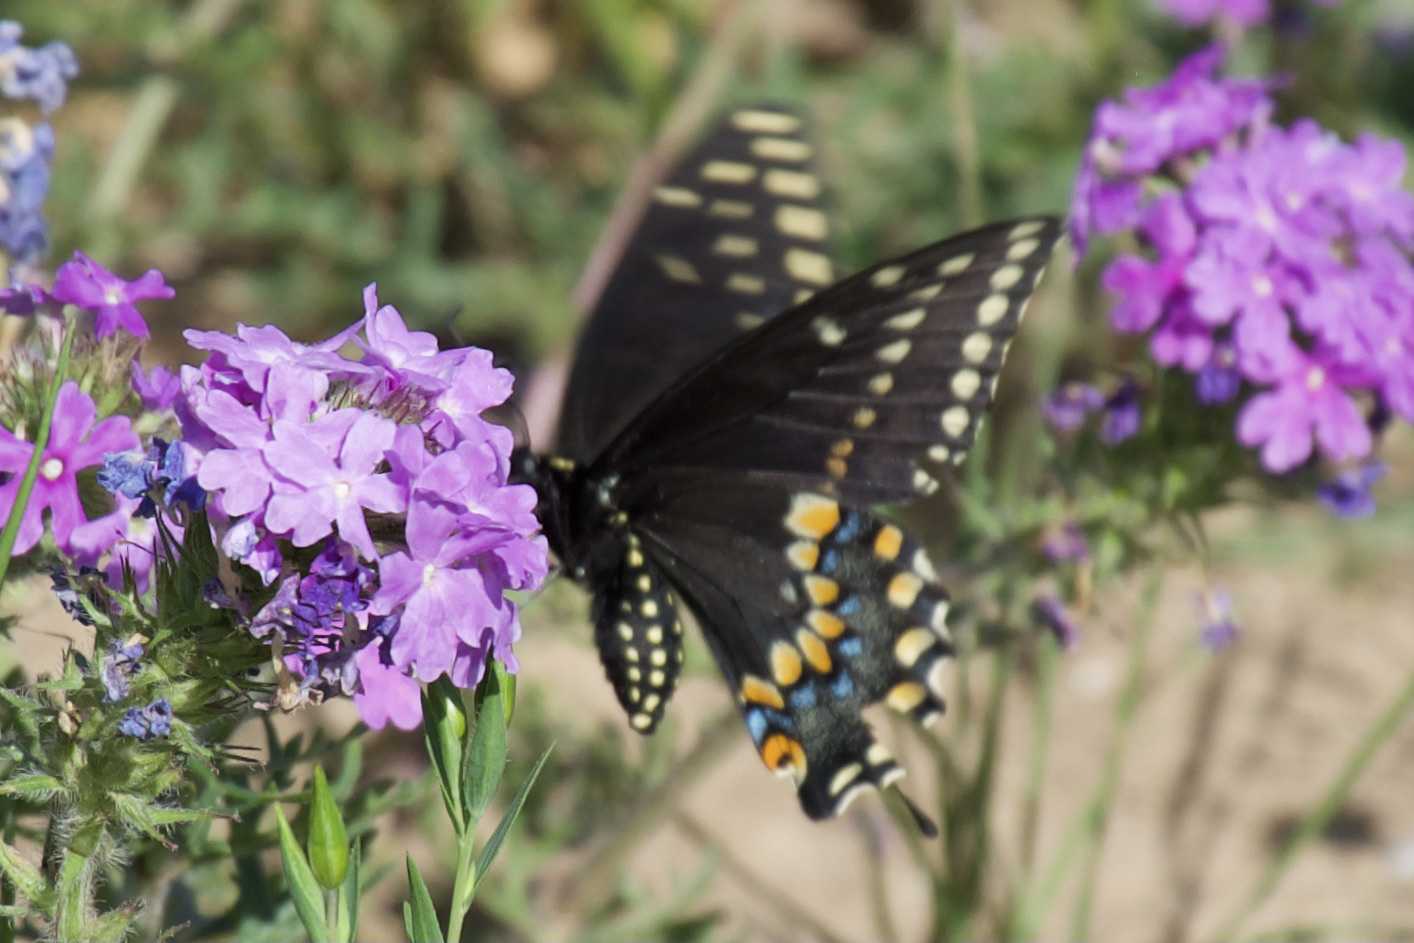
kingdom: Animalia
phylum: Arthropoda
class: Insecta
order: Lepidoptera
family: Papilionidae
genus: Papilio
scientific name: Papilio polyxenes
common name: Black swallowtail
